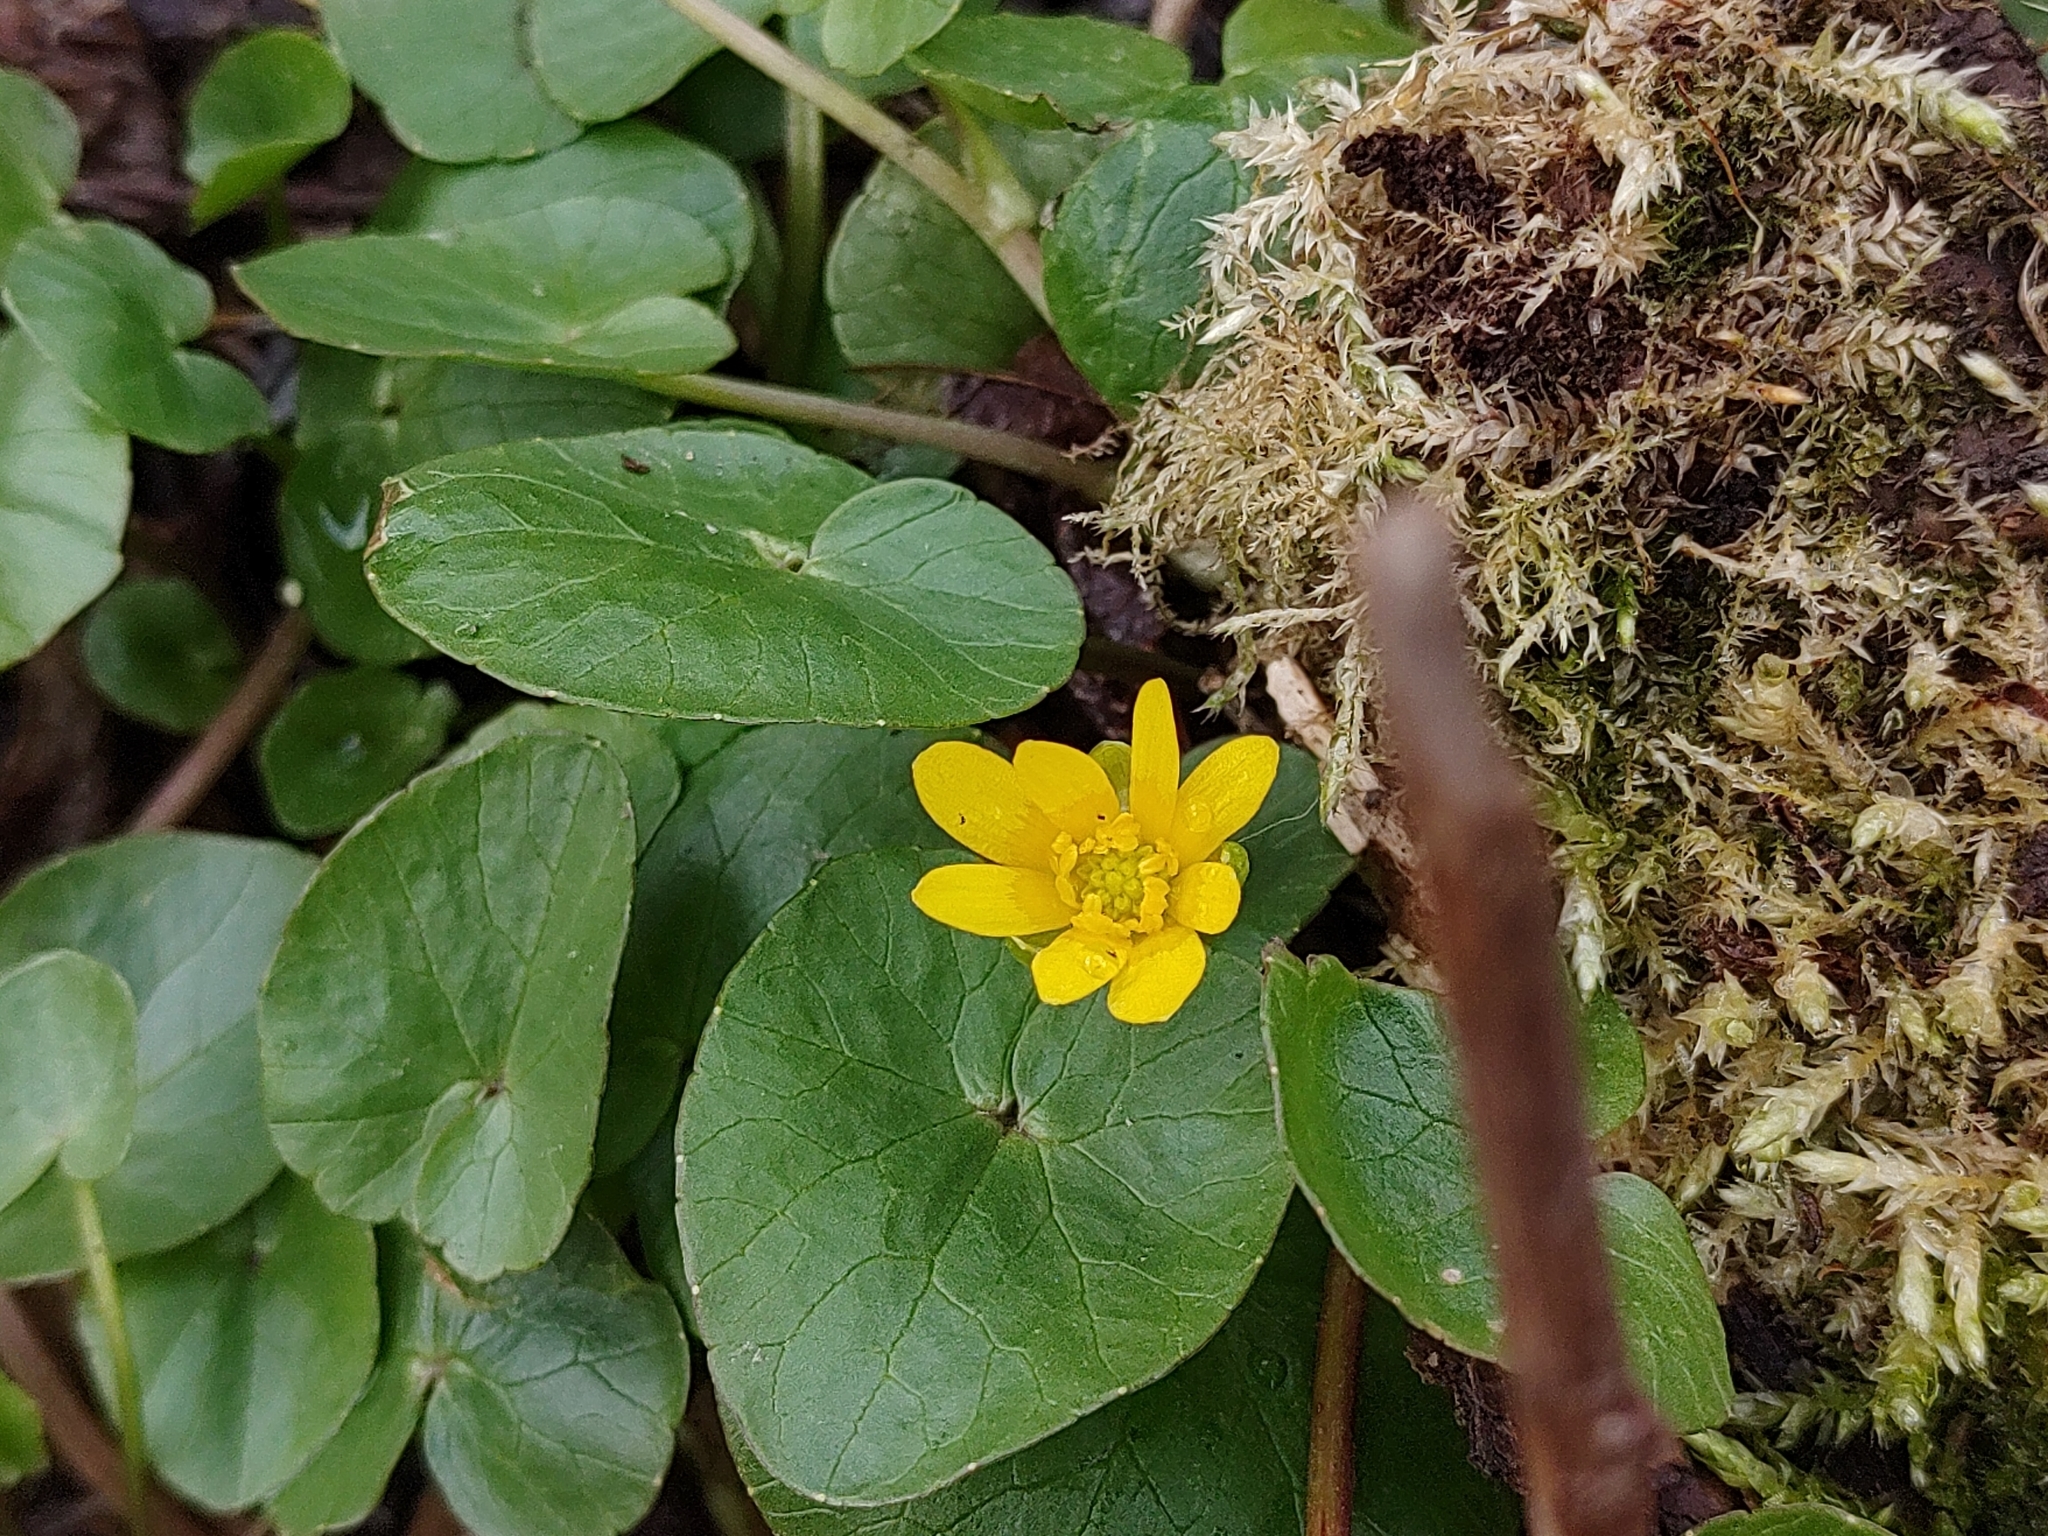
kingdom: Plantae
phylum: Tracheophyta
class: Magnoliopsida
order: Ranunculales
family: Ranunculaceae
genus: Ficaria
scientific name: Ficaria verna
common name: Lesser celandine
